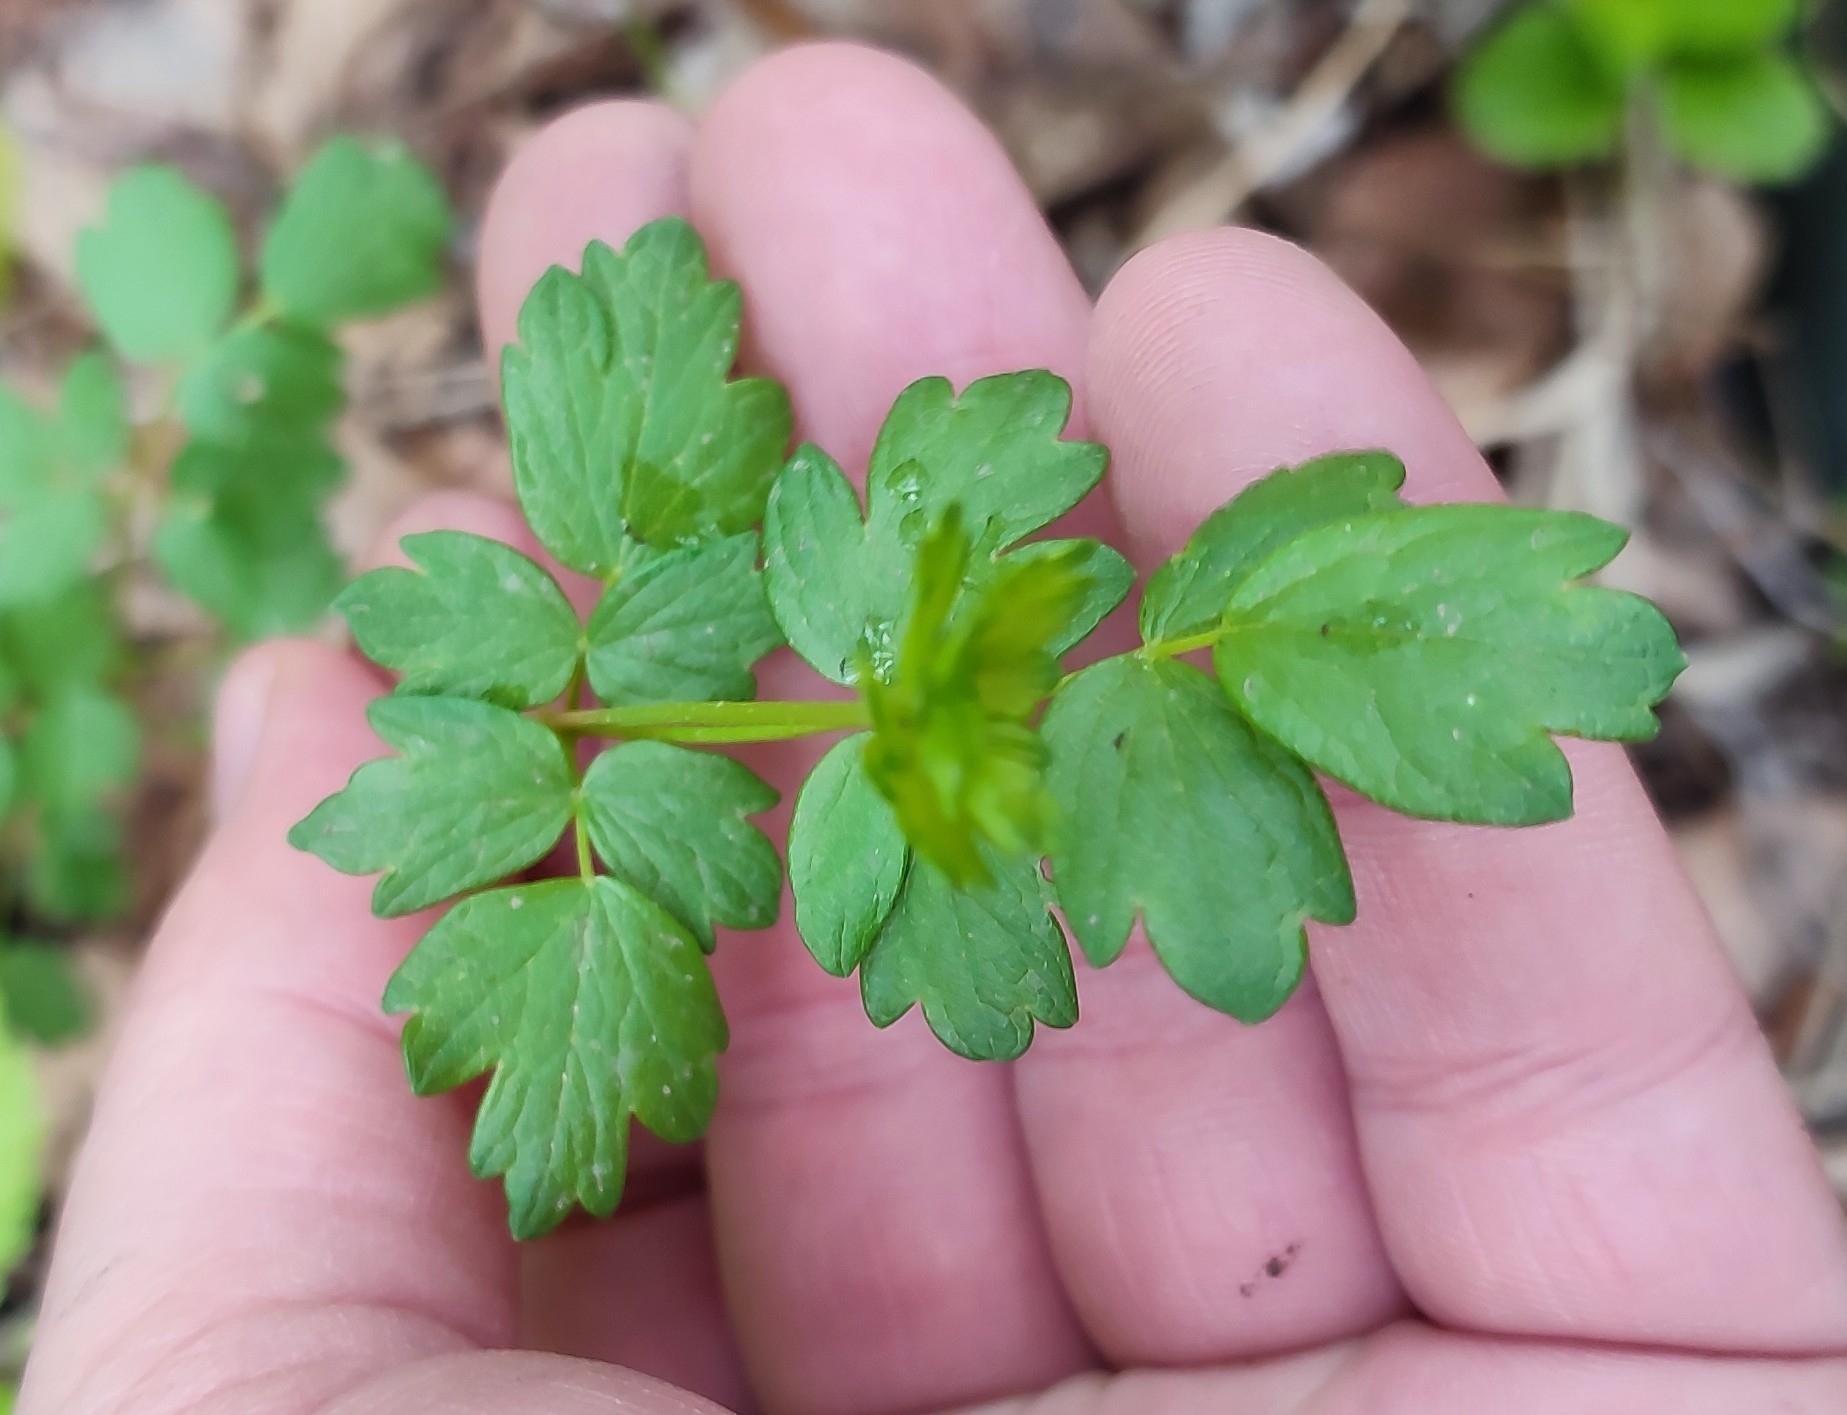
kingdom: Plantae
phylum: Tracheophyta
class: Magnoliopsida
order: Ranunculales
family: Ranunculaceae
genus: Thalictrum
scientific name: Thalictrum simplex
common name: Small meadow-rue
